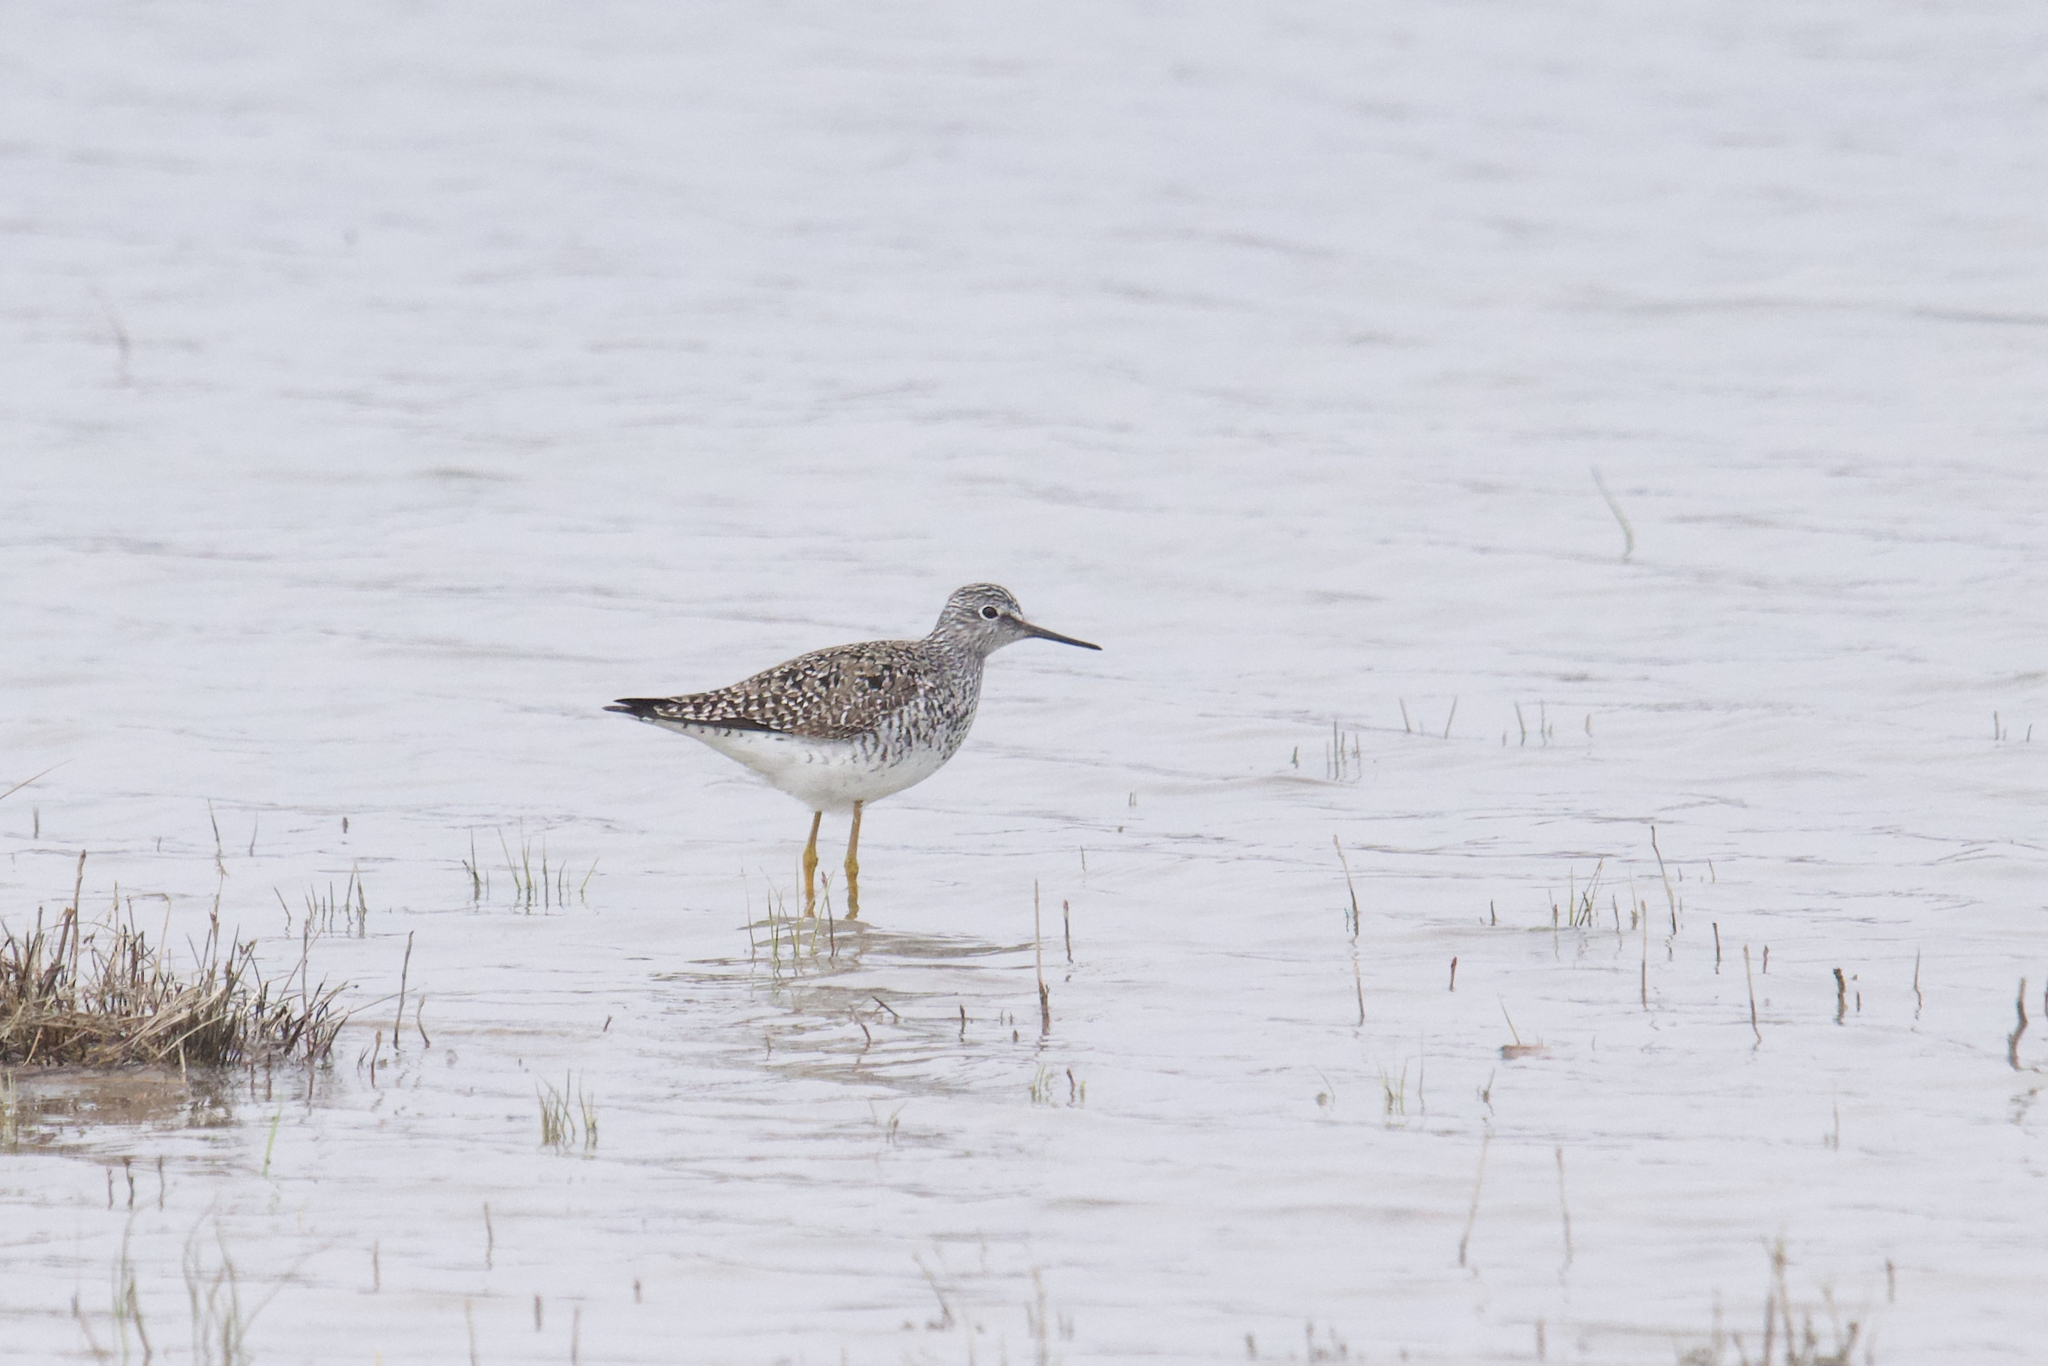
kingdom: Animalia
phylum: Chordata
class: Aves
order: Charadriiformes
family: Scolopacidae
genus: Tringa
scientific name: Tringa flavipes
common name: Lesser yellowlegs
